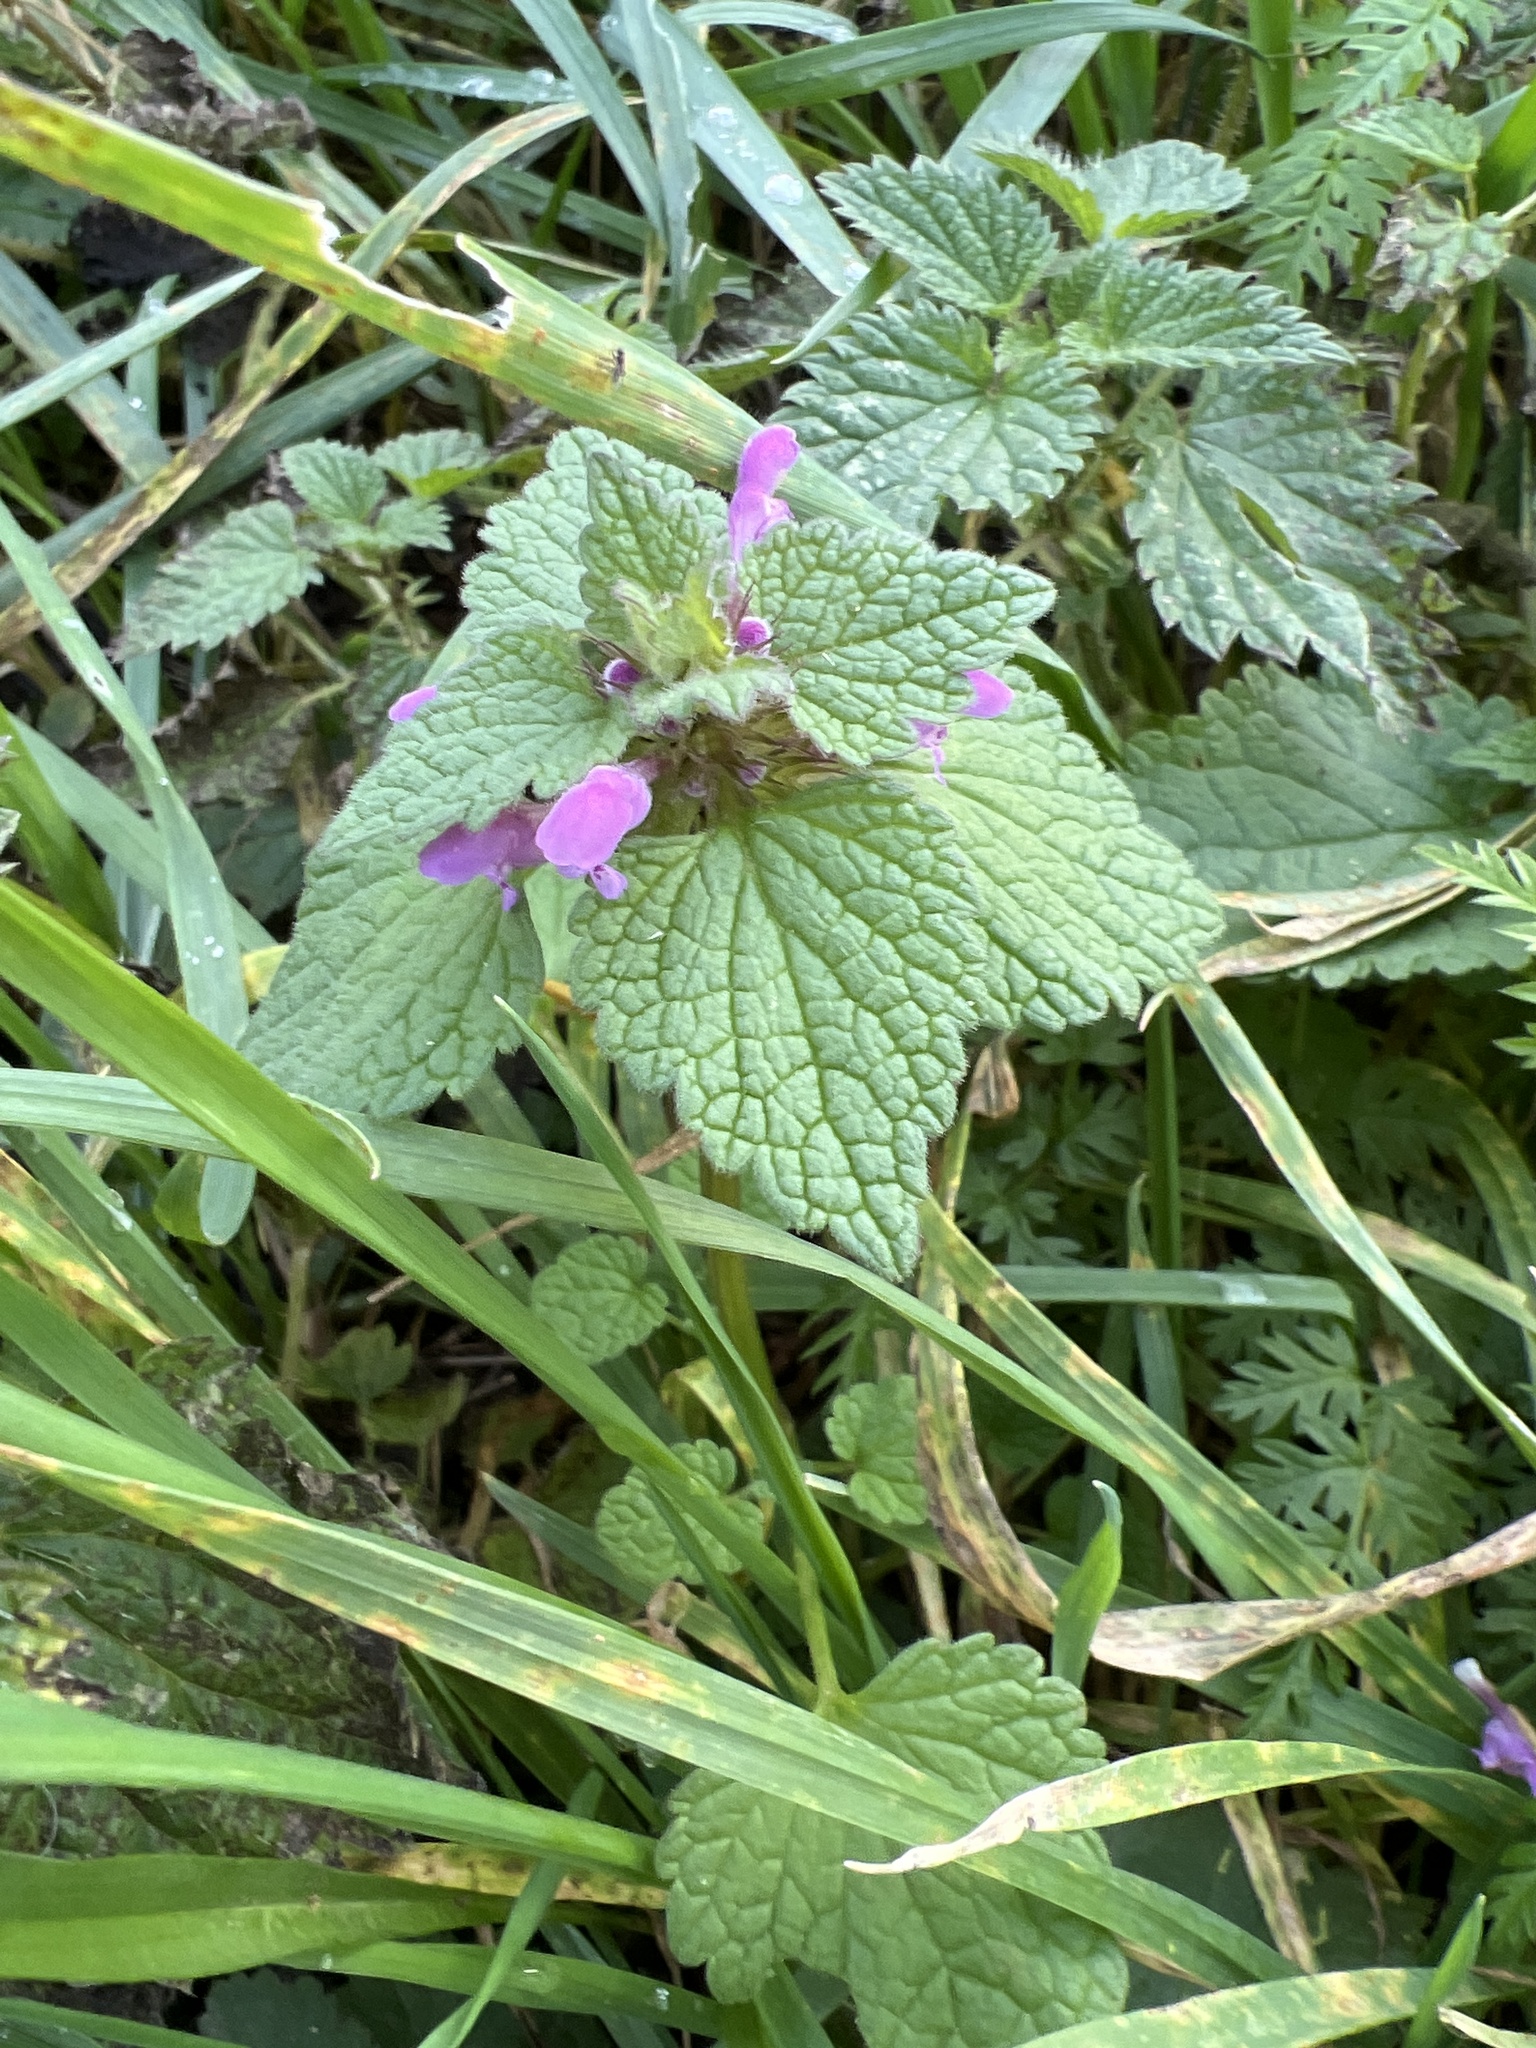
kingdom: Plantae
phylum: Tracheophyta
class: Magnoliopsida
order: Lamiales
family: Lamiaceae
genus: Lamium
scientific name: Lamium purpureum
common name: Red dead-nettle
